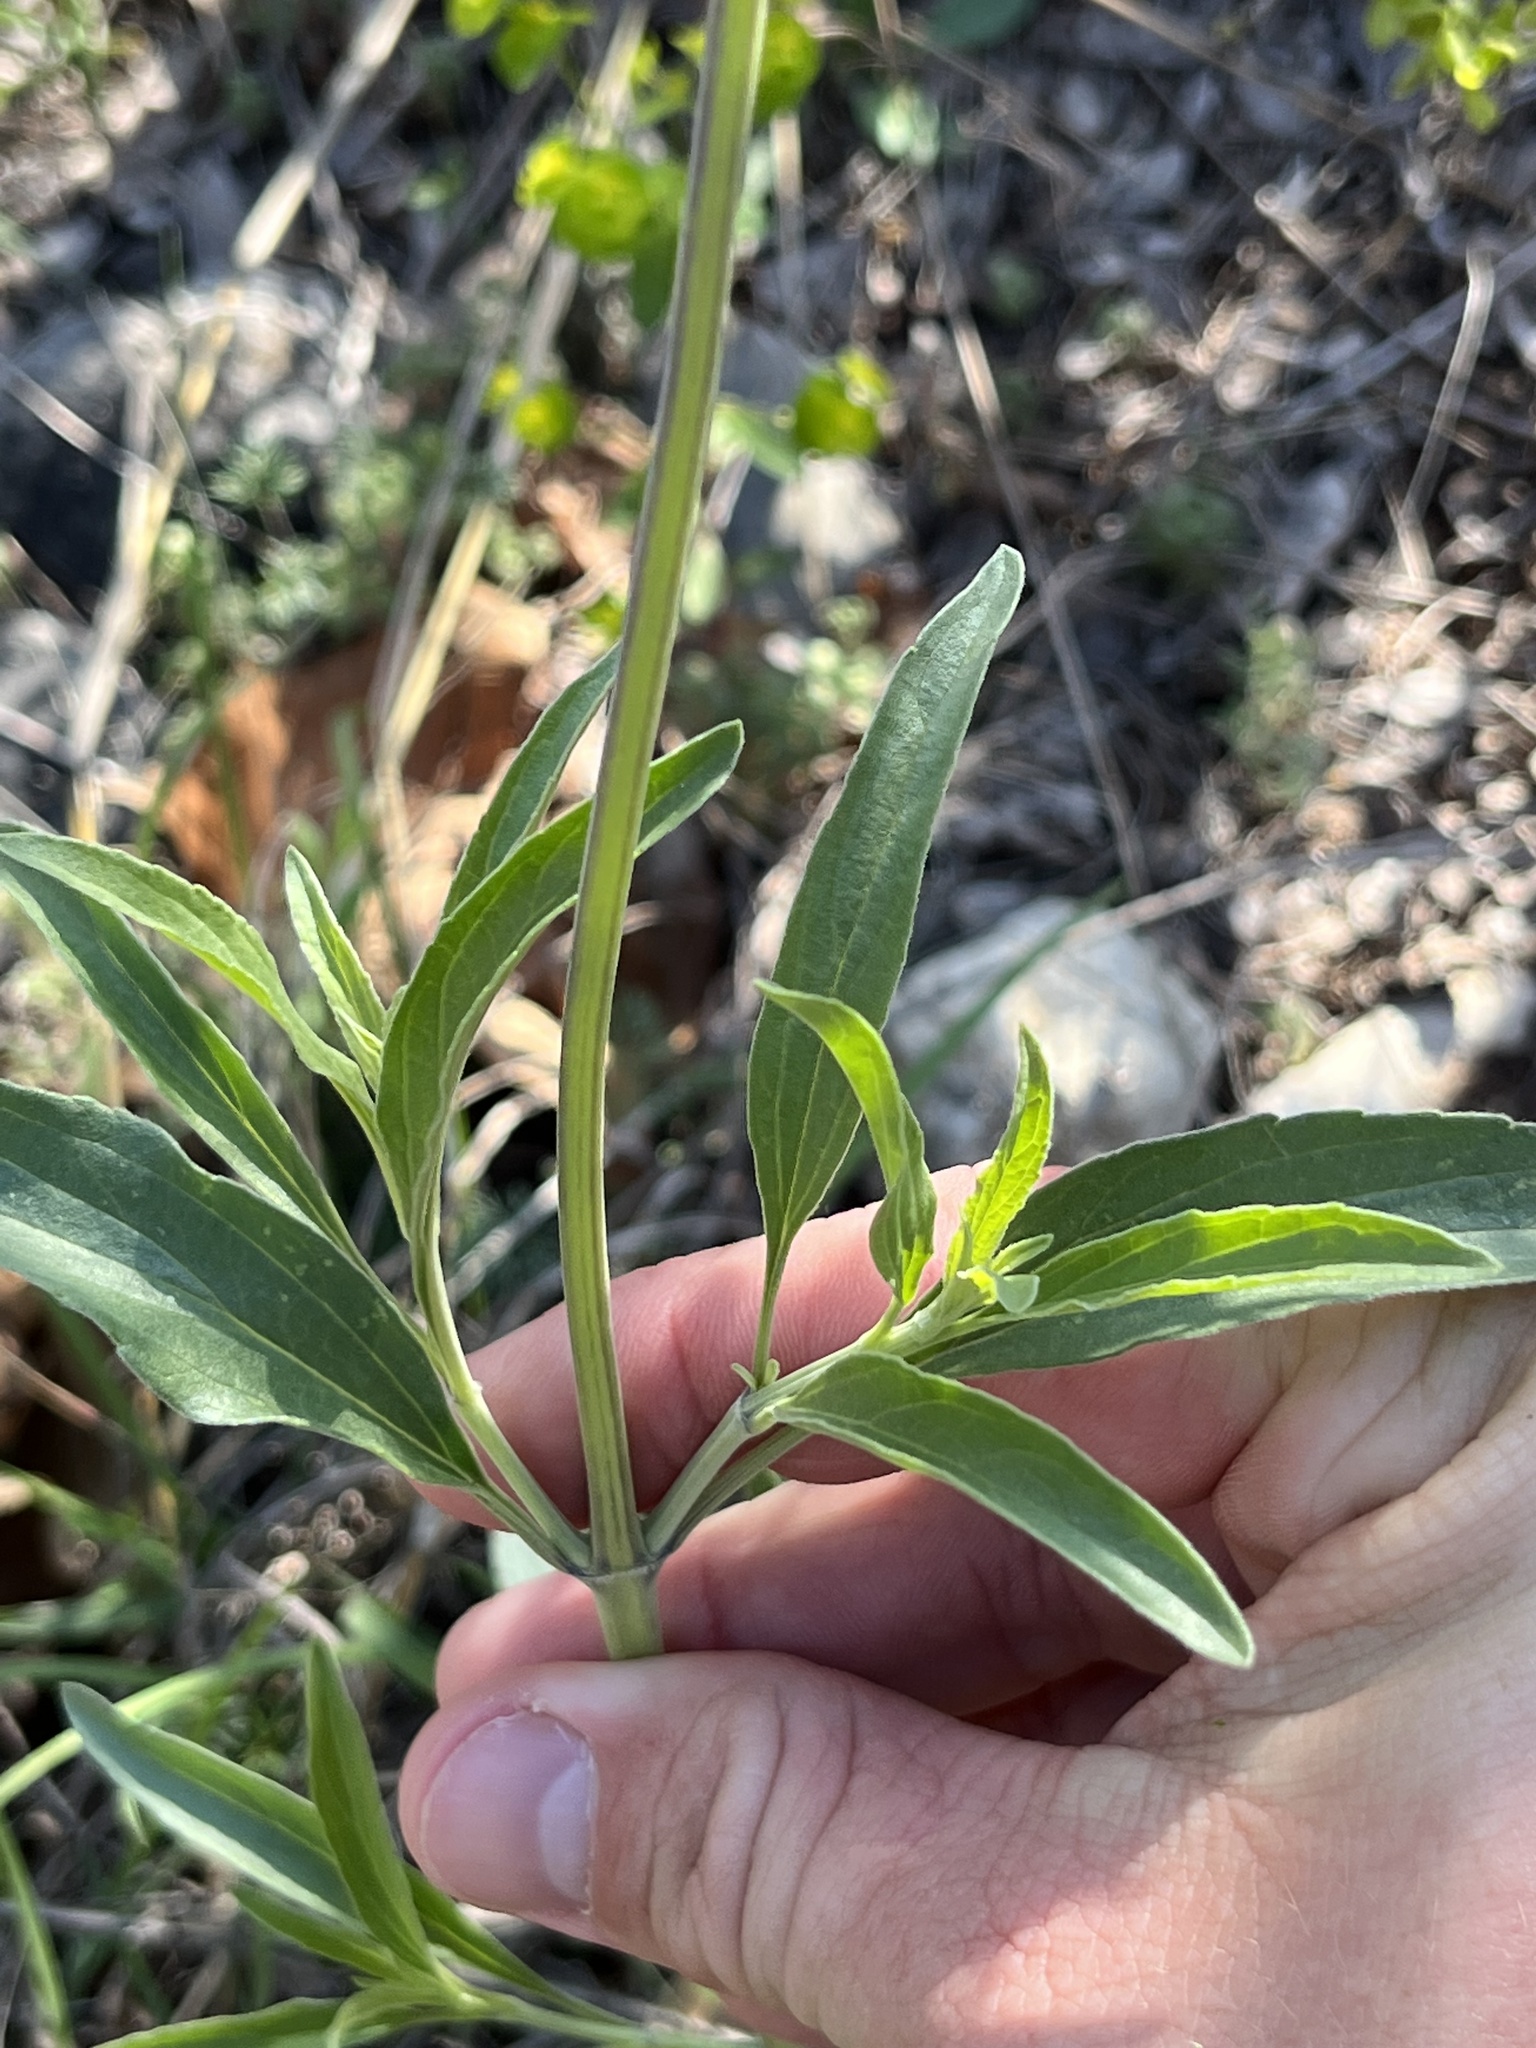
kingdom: Plantae
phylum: Tracheophyta
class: Magnoliopsida
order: Lamiales
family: Lamiaceae
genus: Salvia
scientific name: Salvia farinacea
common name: Mealy sage
